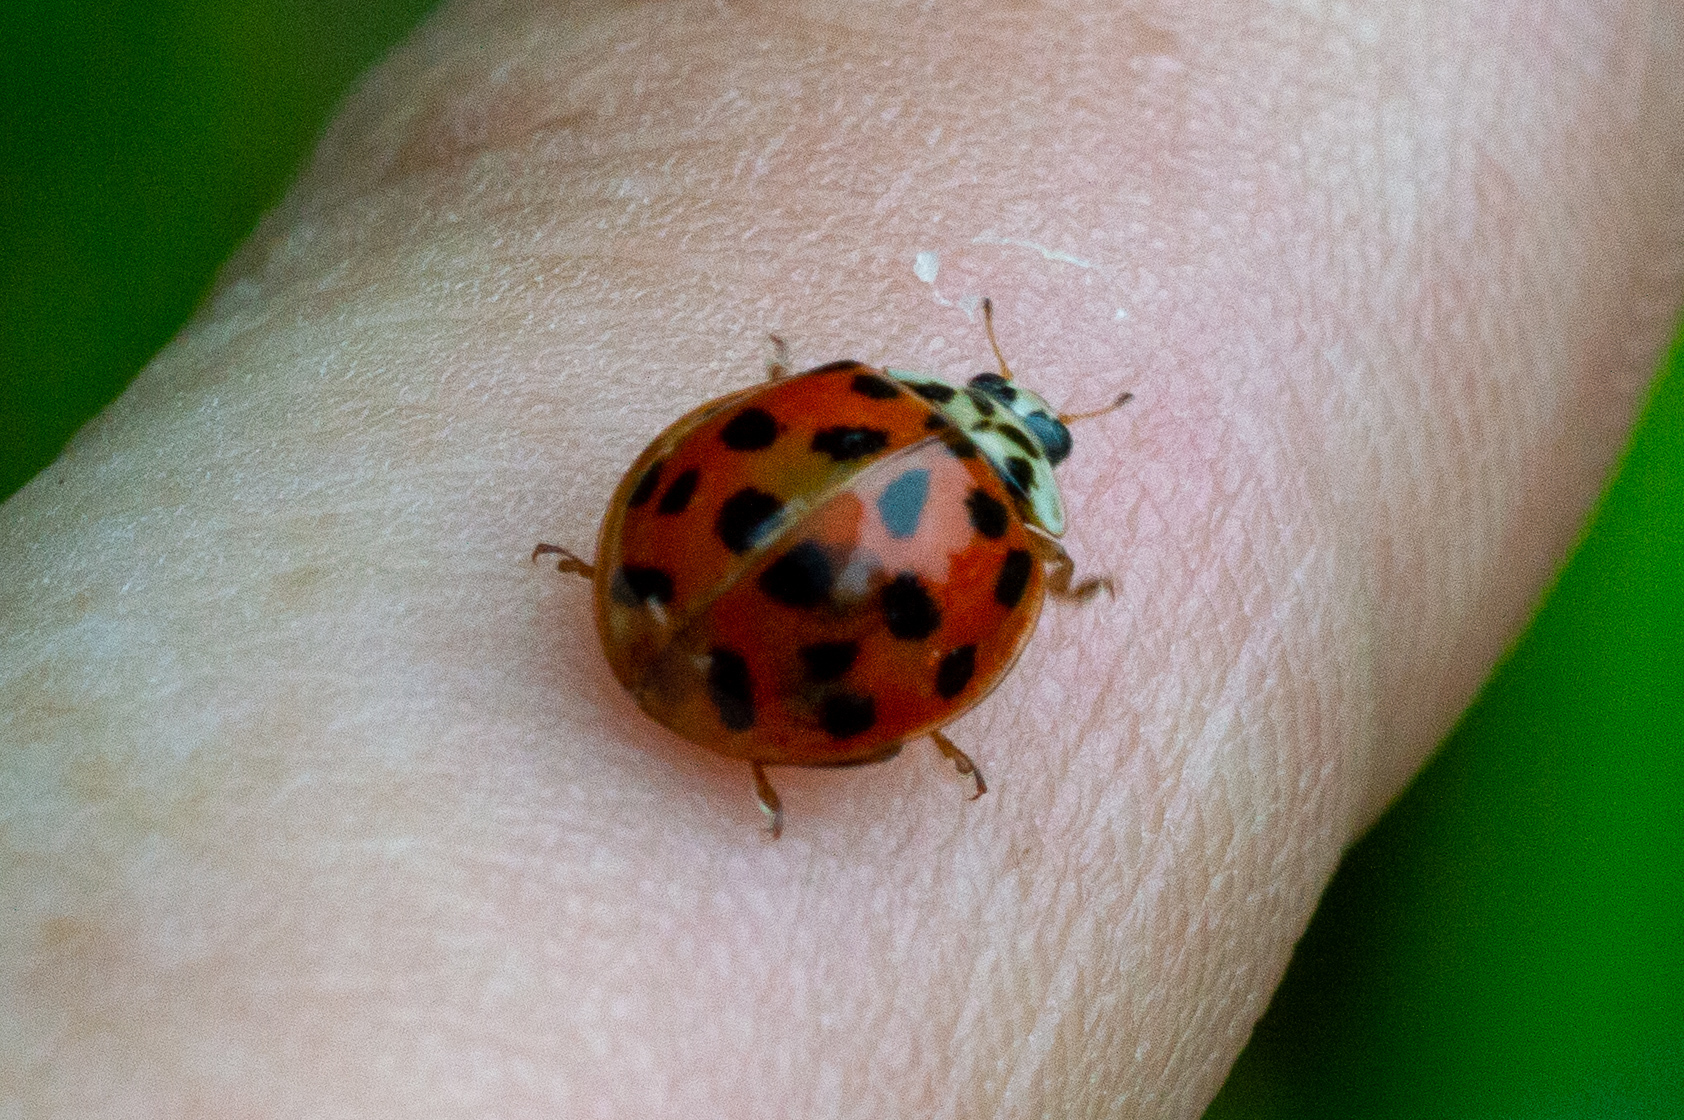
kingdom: Animalia
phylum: Arthropoda
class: Insecta
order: Coleoptera
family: Coccinellidae
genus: Harmonia
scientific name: Harmonia axyridis
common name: Harlequin ladybird
